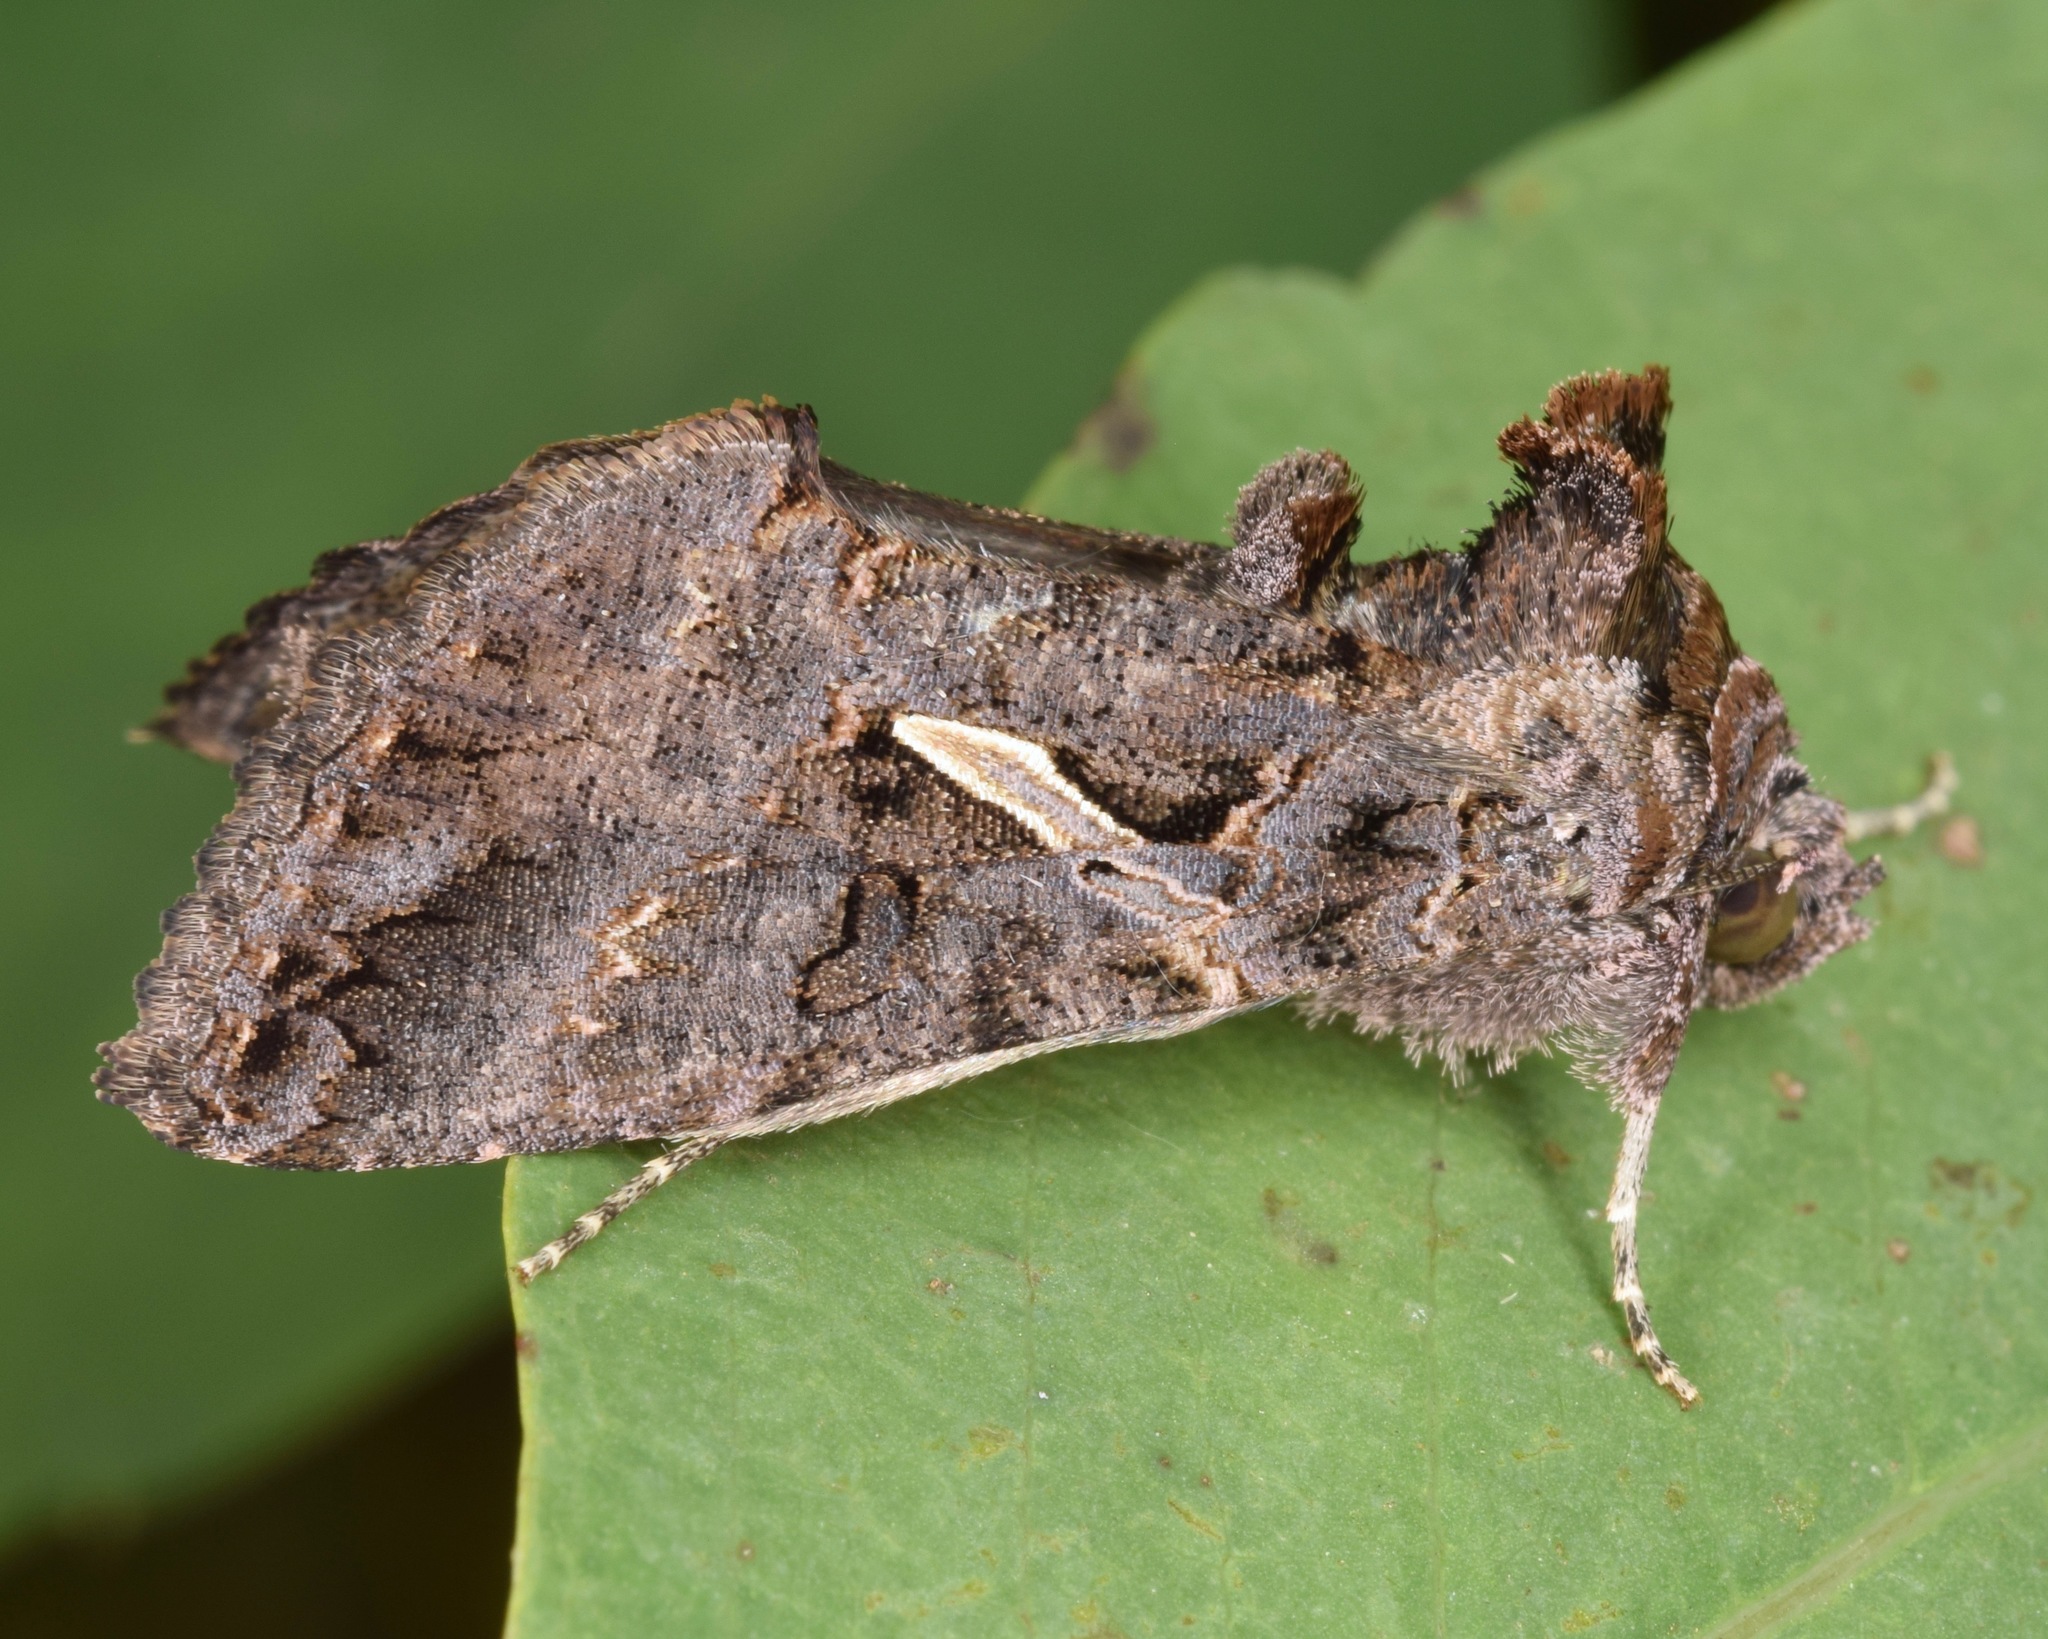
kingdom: Animalia
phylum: Arthropoda
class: Insecta
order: Lepidoptera
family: Noctuidae
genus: Ctenoplusia
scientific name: Ctenoplusia oxygramma
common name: Sharp-stigma looper moth
